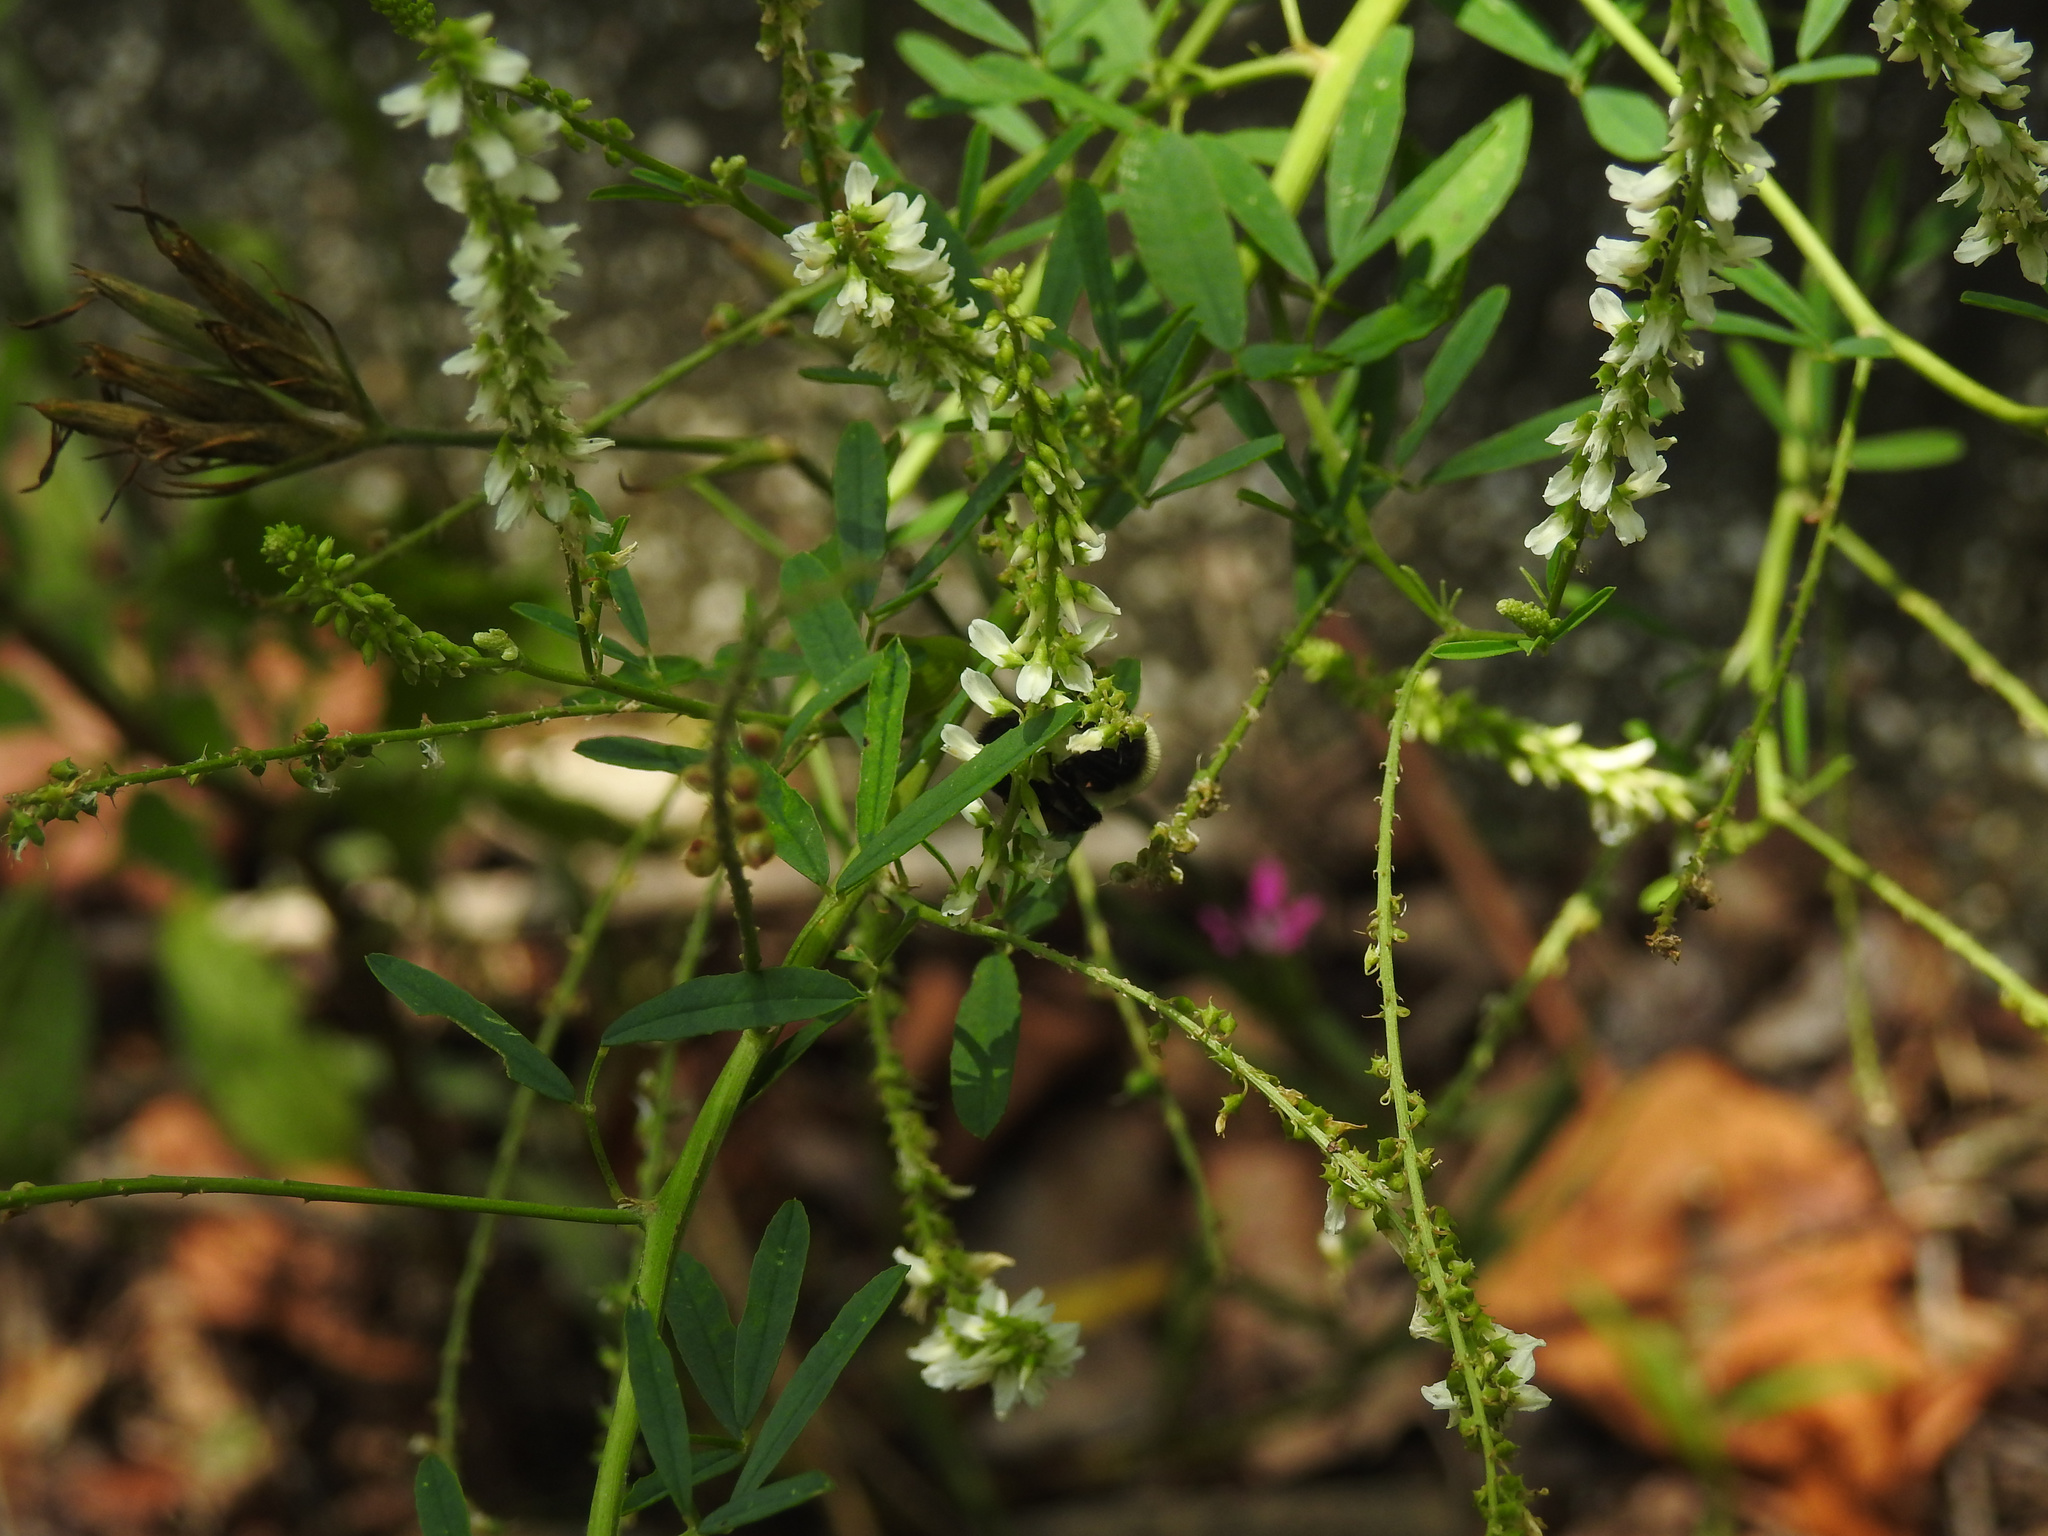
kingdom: Plantae
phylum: Tracheophyta
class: Magnoliopsida
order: Fabales
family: Fabaceae
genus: Melilotus
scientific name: Melilotus albus
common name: White melilot
